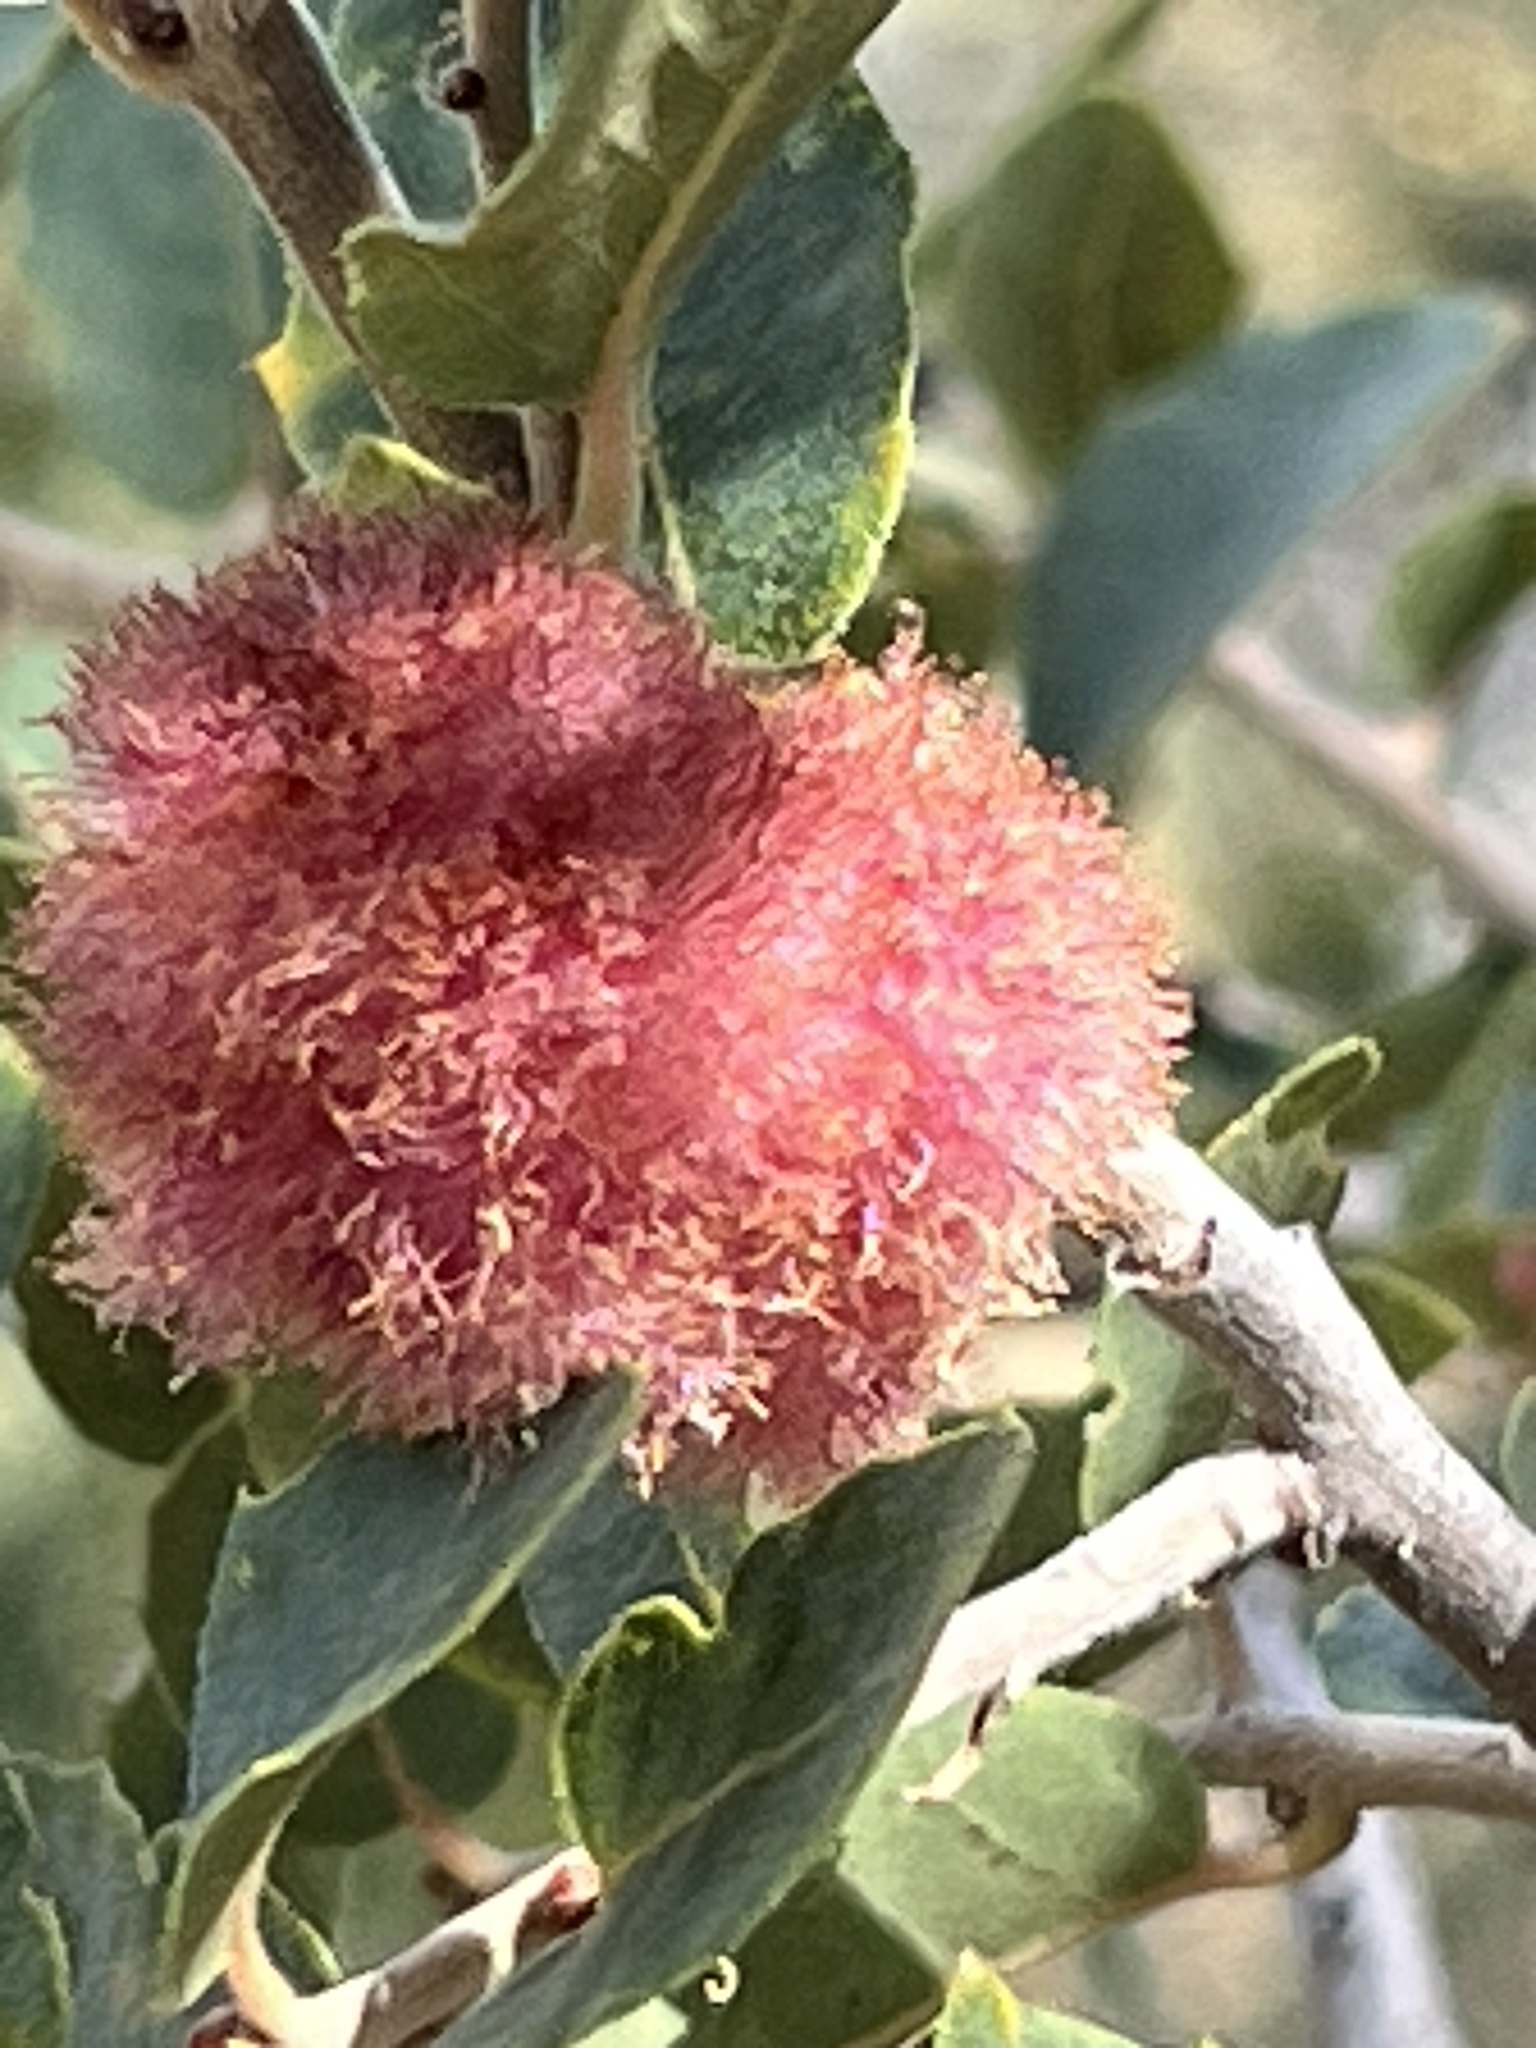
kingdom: Animalia
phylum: Arthropoda
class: Insecta
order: Hymenoptera
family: Cynipidae
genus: Andricus
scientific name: Andricus
